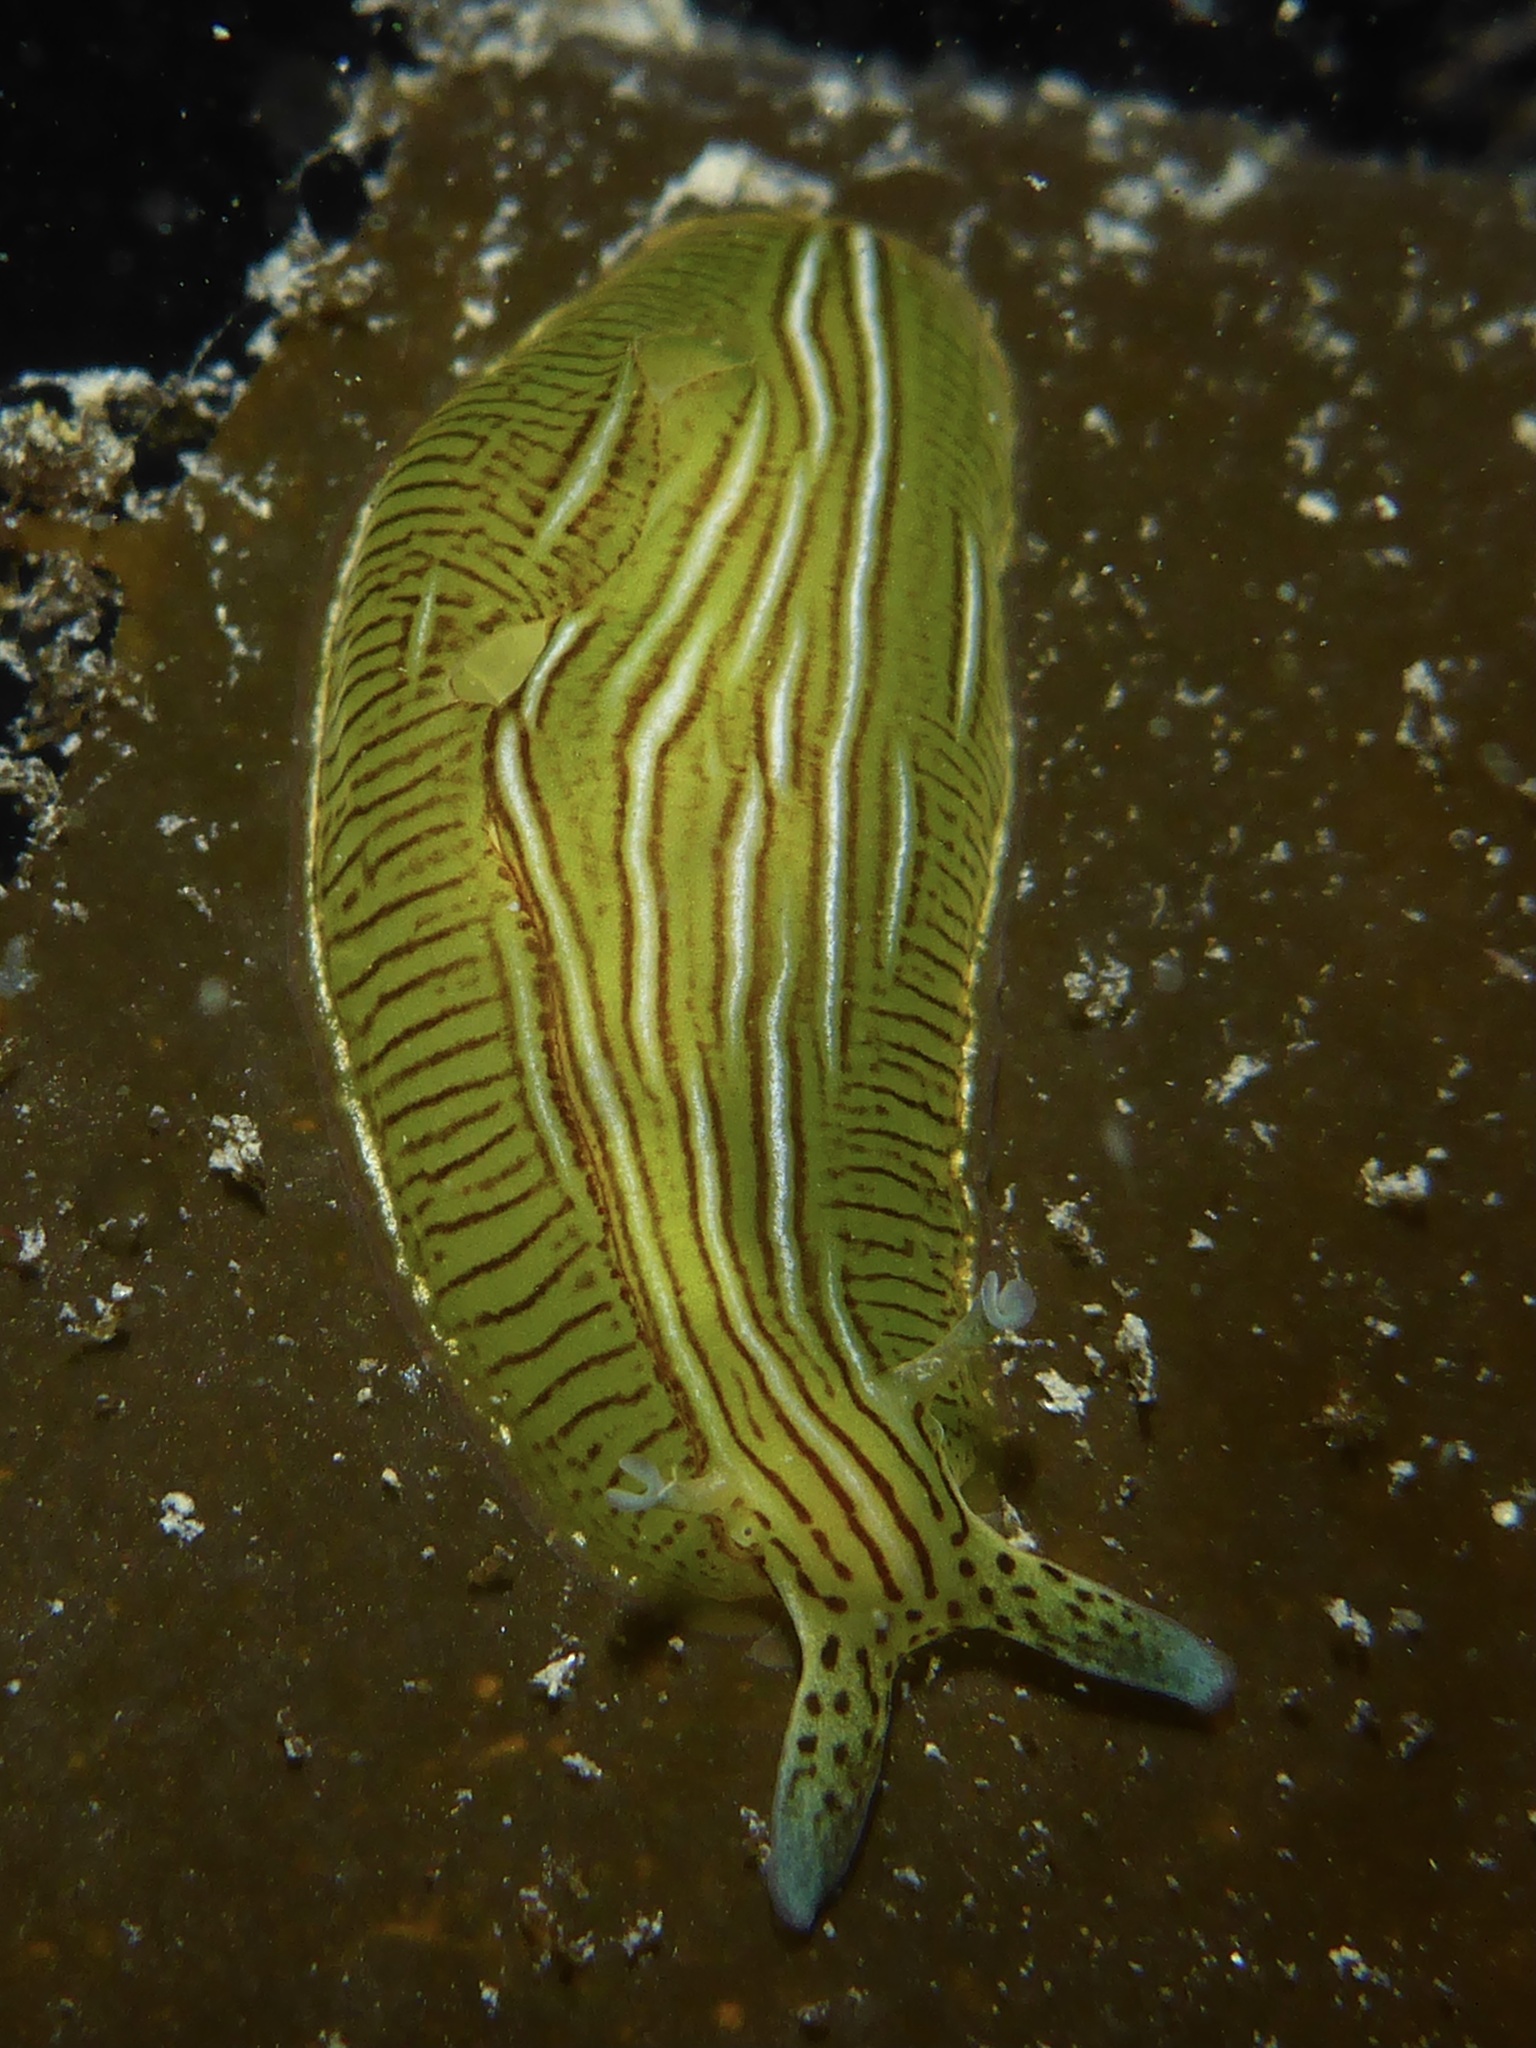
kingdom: Animalia
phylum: Mollusca
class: Gastropoda
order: Aplysiida
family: Aplysiidae
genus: Phyllaplysia
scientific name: Phyllaplysia taylori
